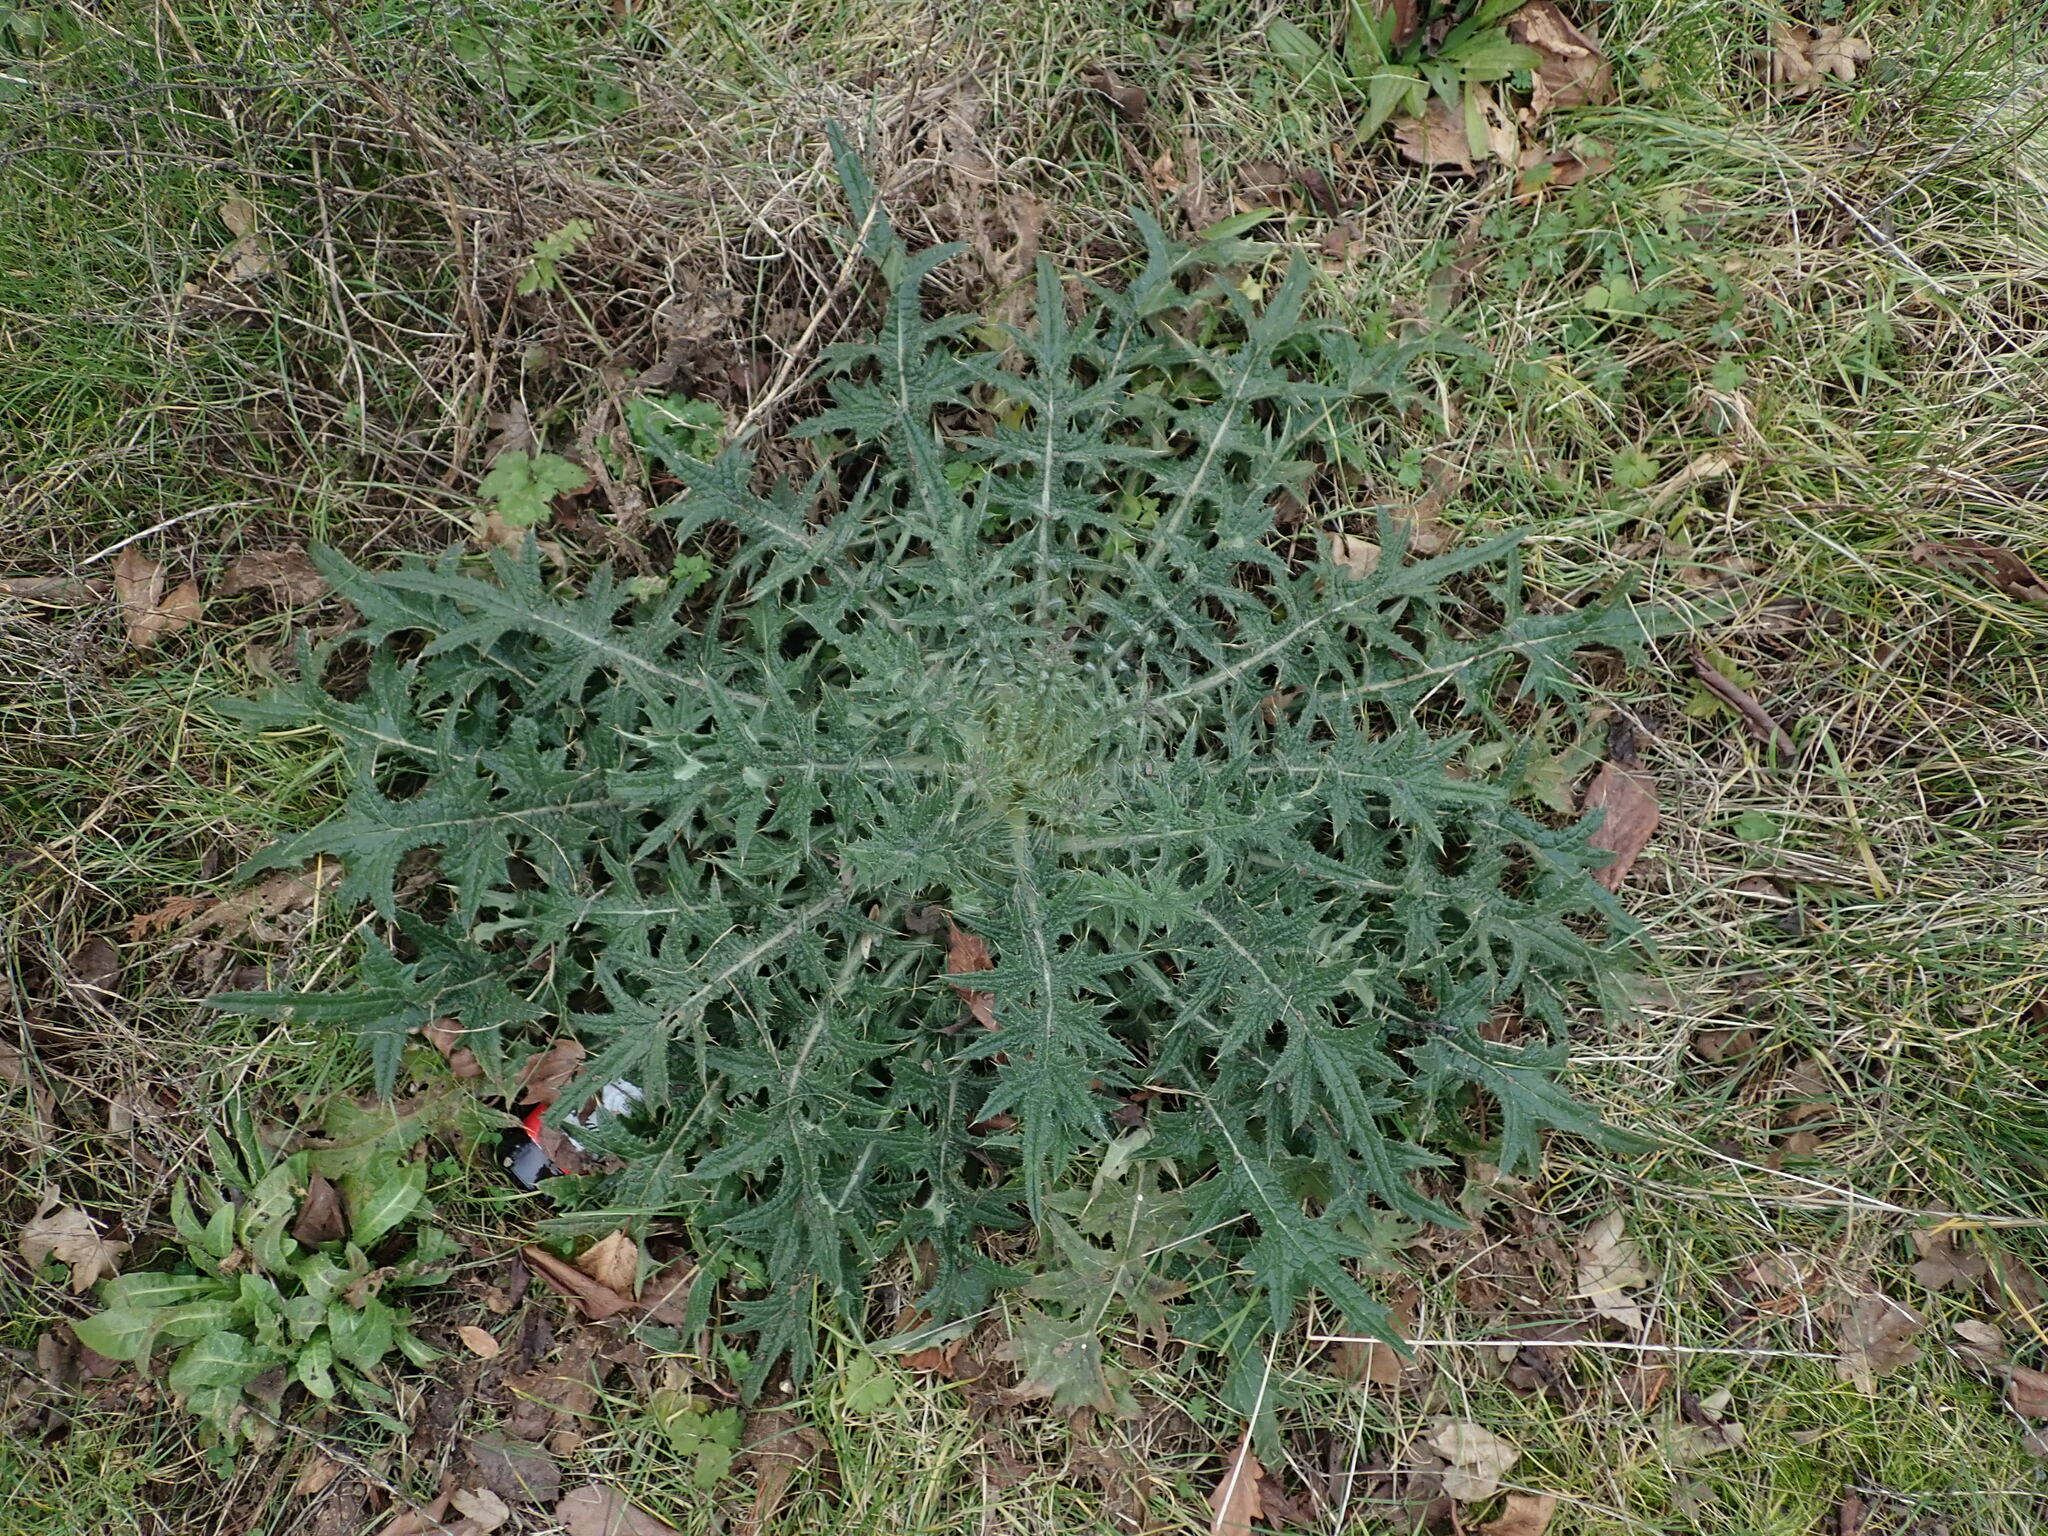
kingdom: Plantae
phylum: Tracheophyta
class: Magnoliopsida
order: Asterales
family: Asteraceae
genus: Cirsium
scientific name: Cirsium vulgare
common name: Bull thistle
